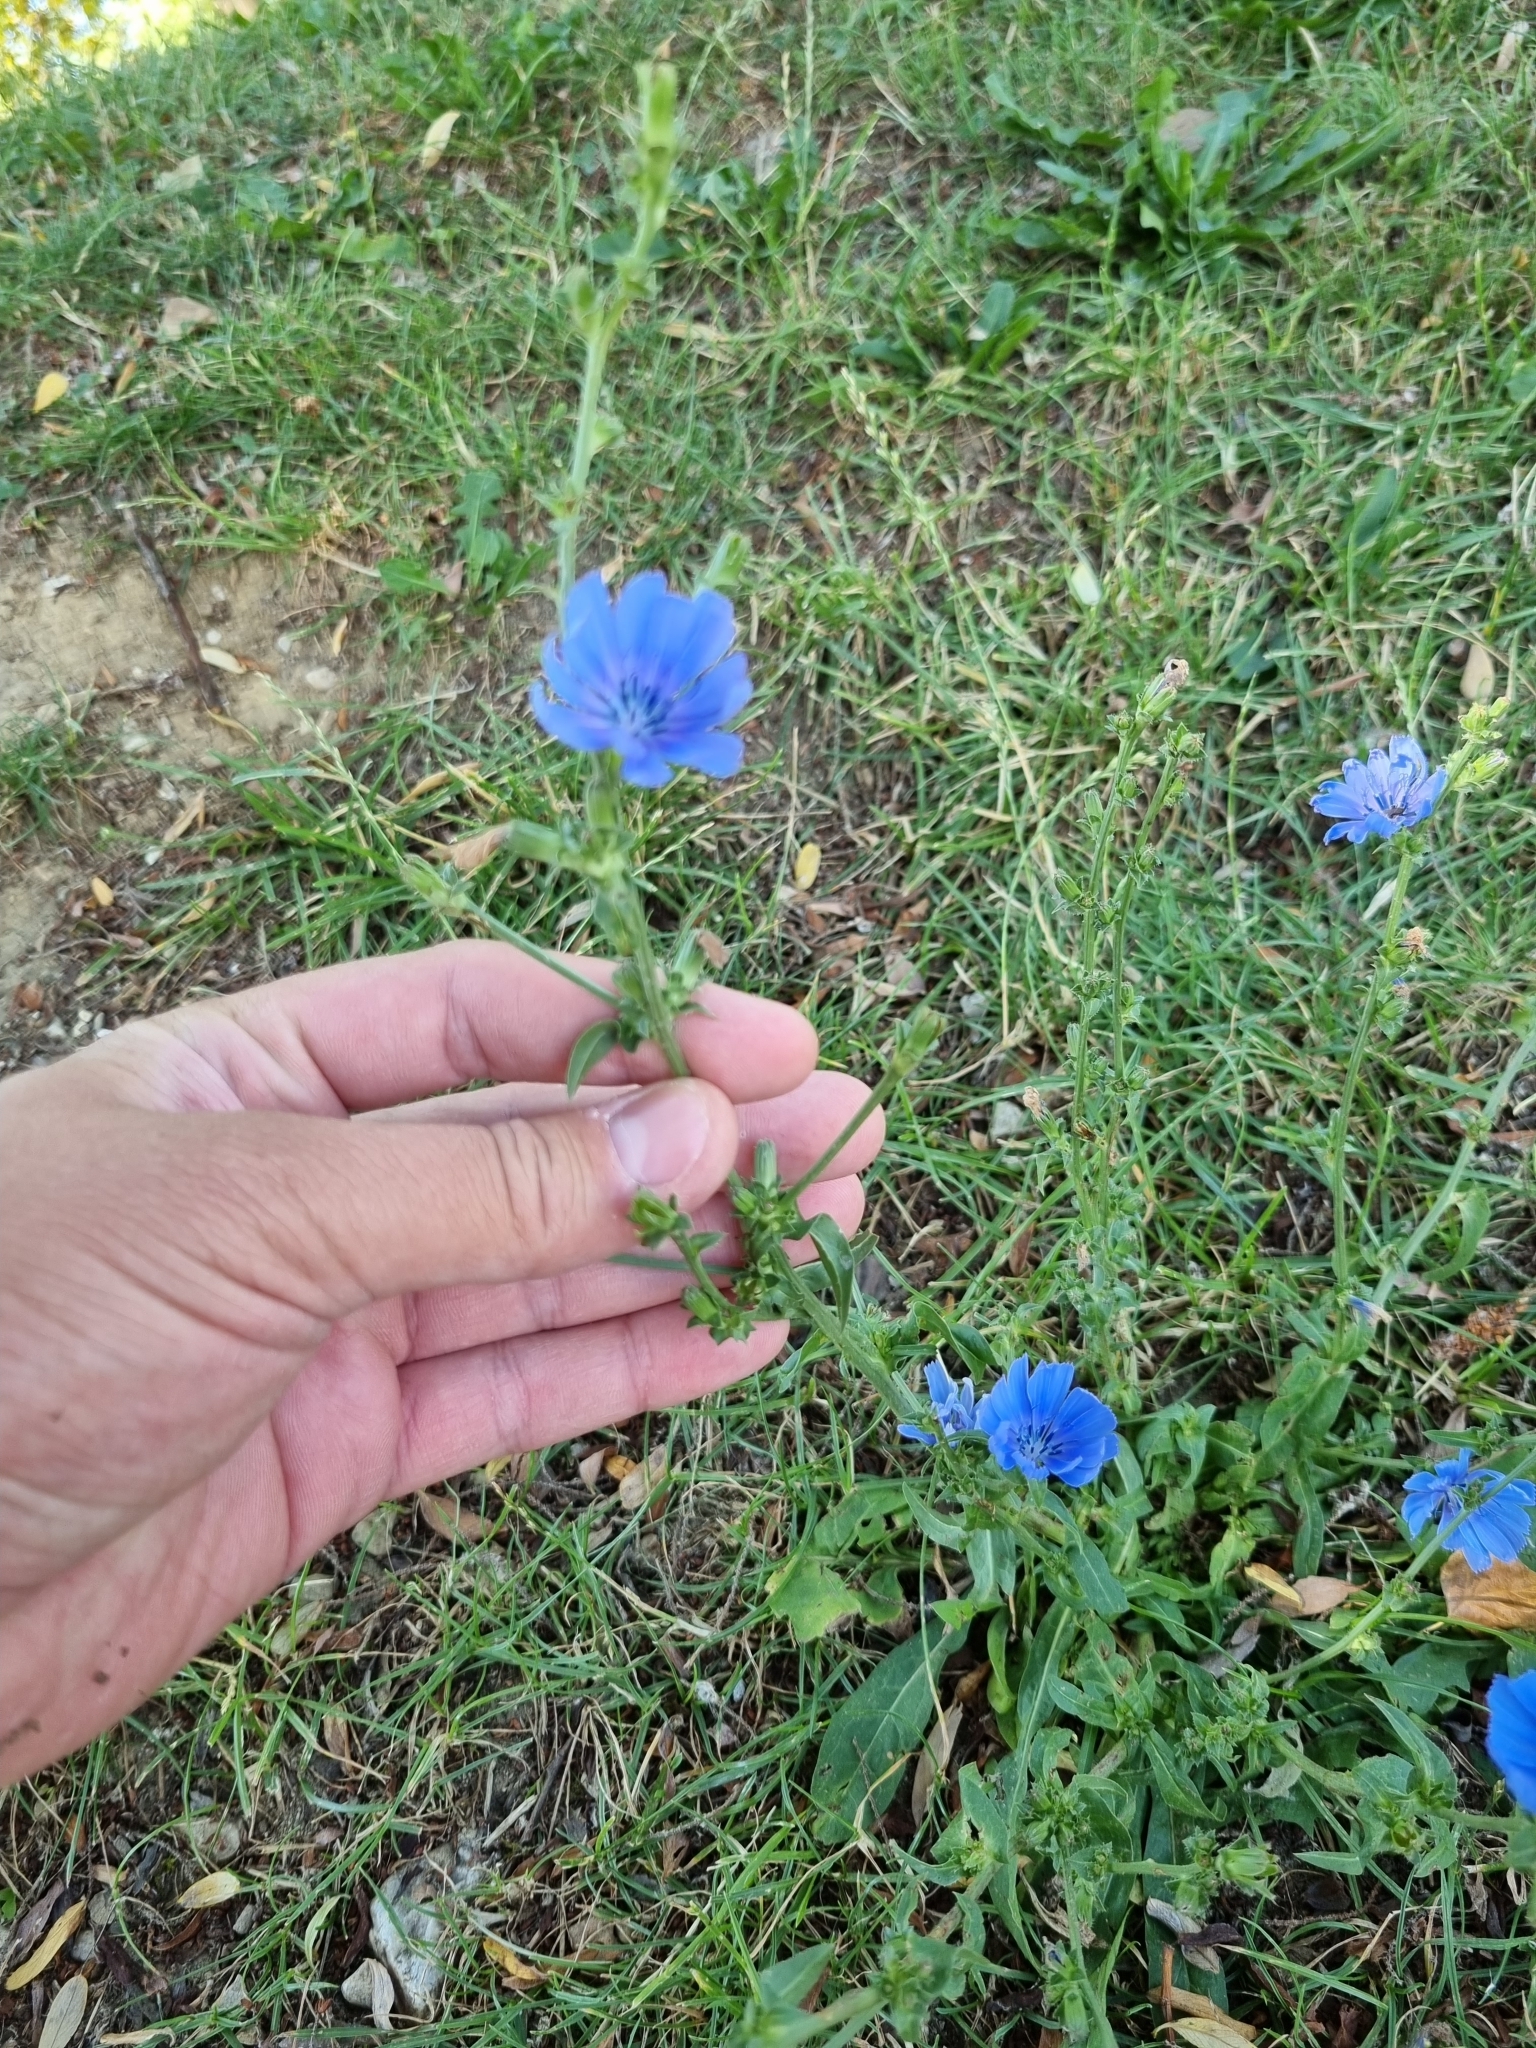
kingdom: Plantae
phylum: Tracheophyta
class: Magnoliopsida
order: Asterales
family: Asteraceae
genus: Cichorium
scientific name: Cichorium intybus
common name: Chicory
